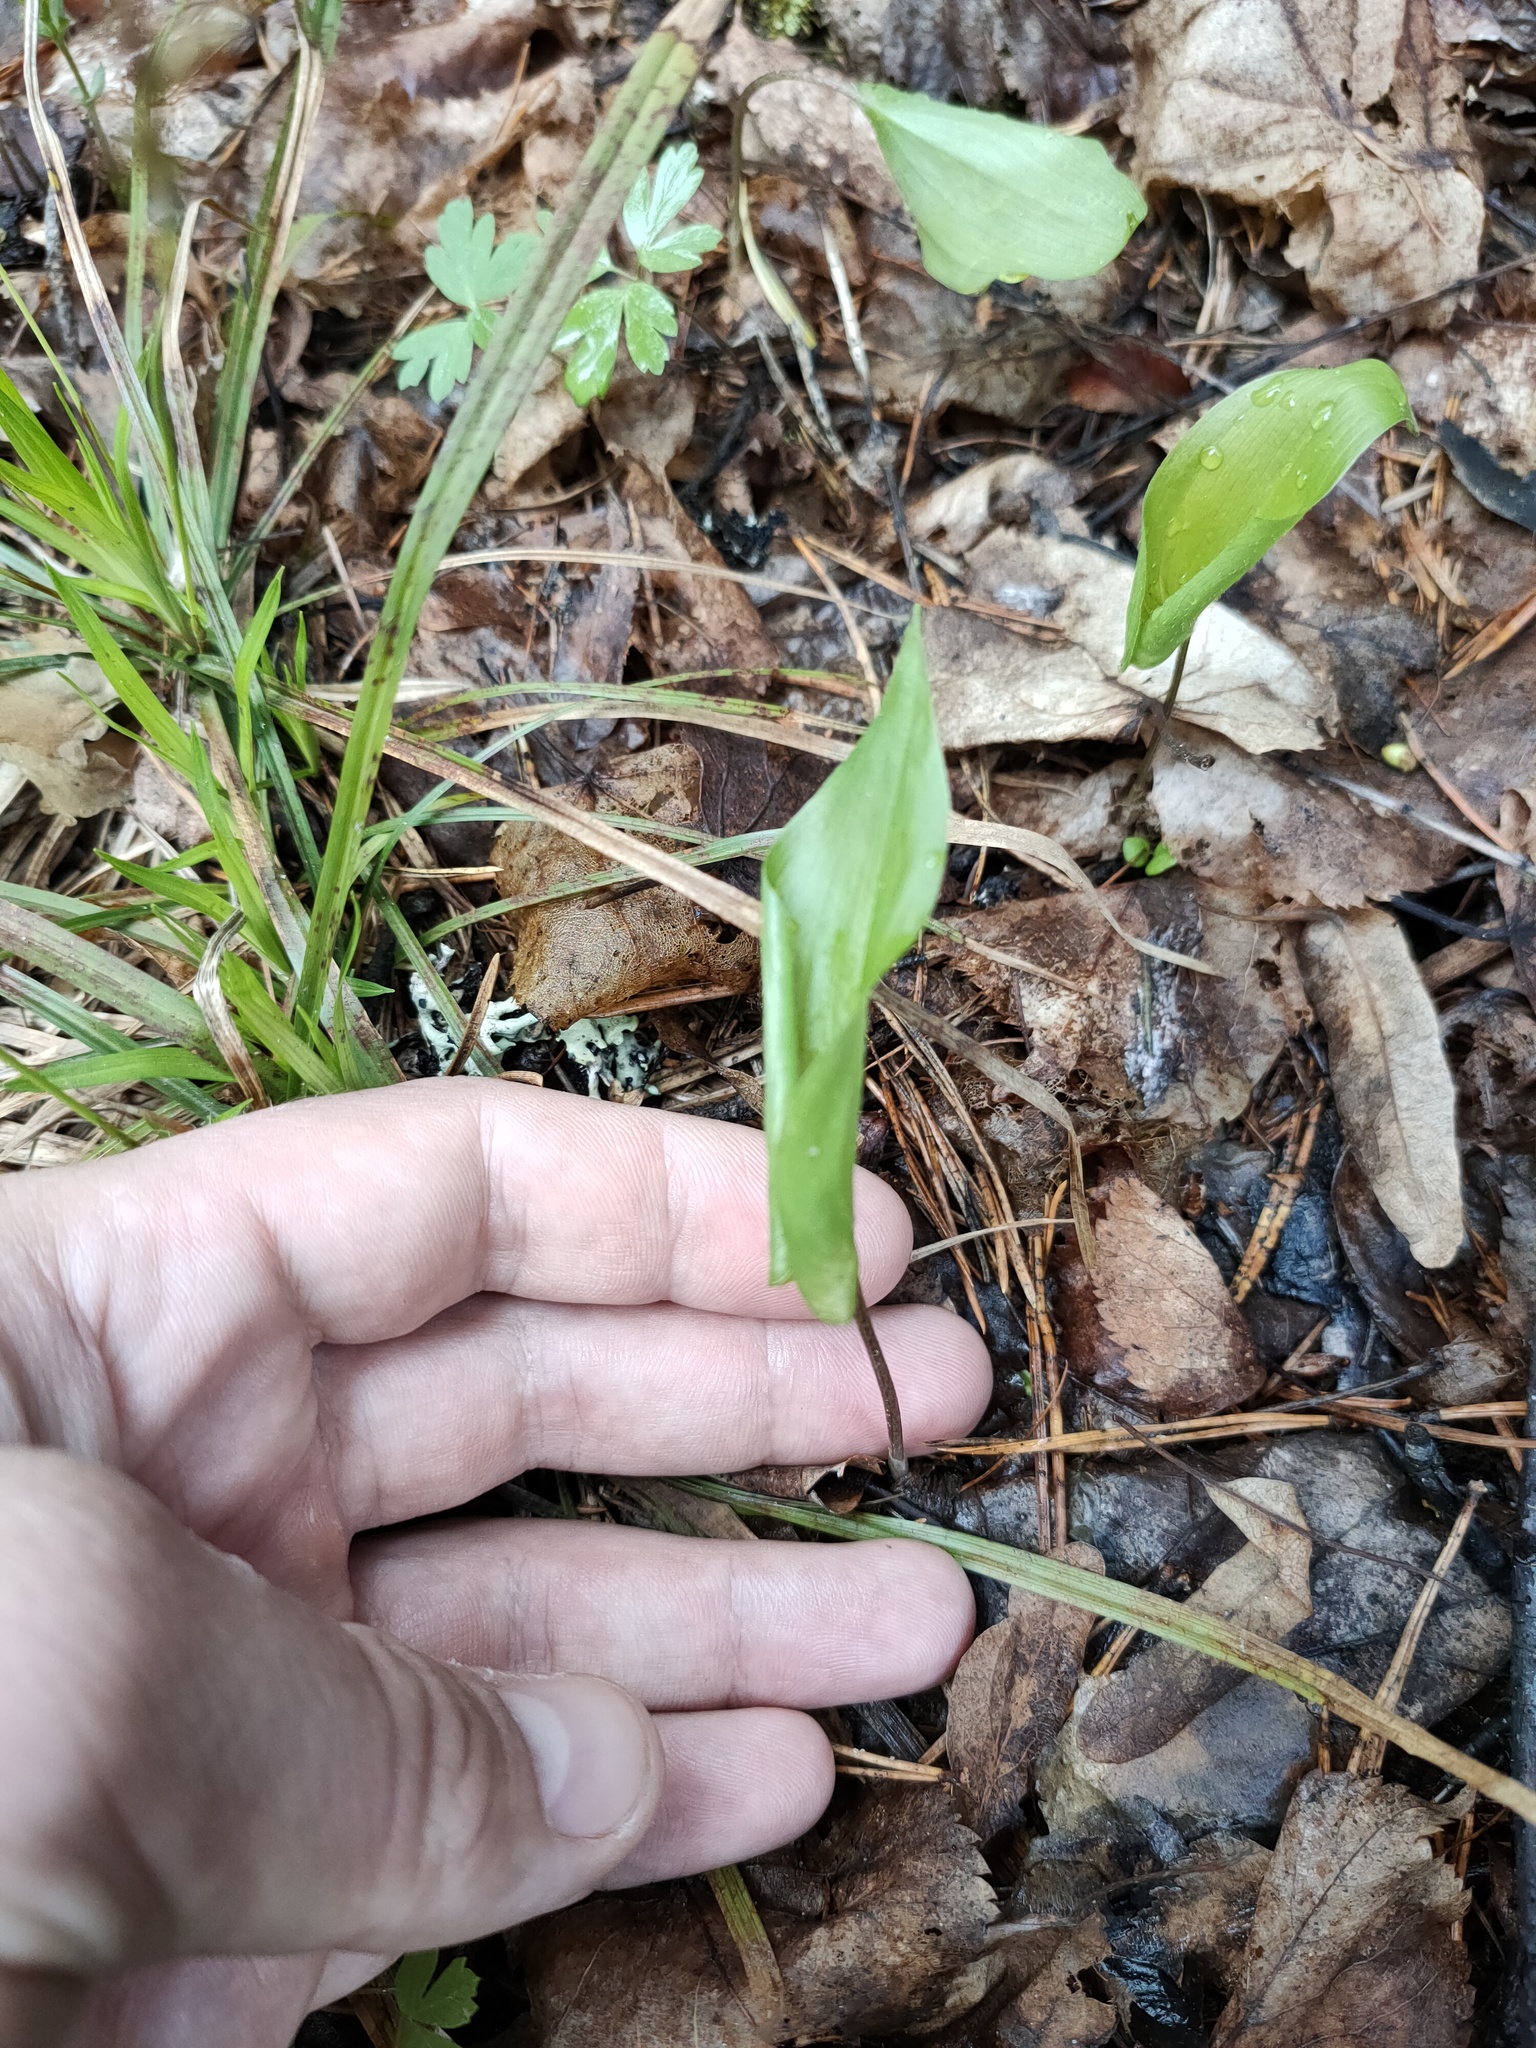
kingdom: Plantae
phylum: Tracheophyta
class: Liliopsida
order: Asparagales
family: Asparagaceae
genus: Maianthemum
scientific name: Maianthemum bifolium
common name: May lily
